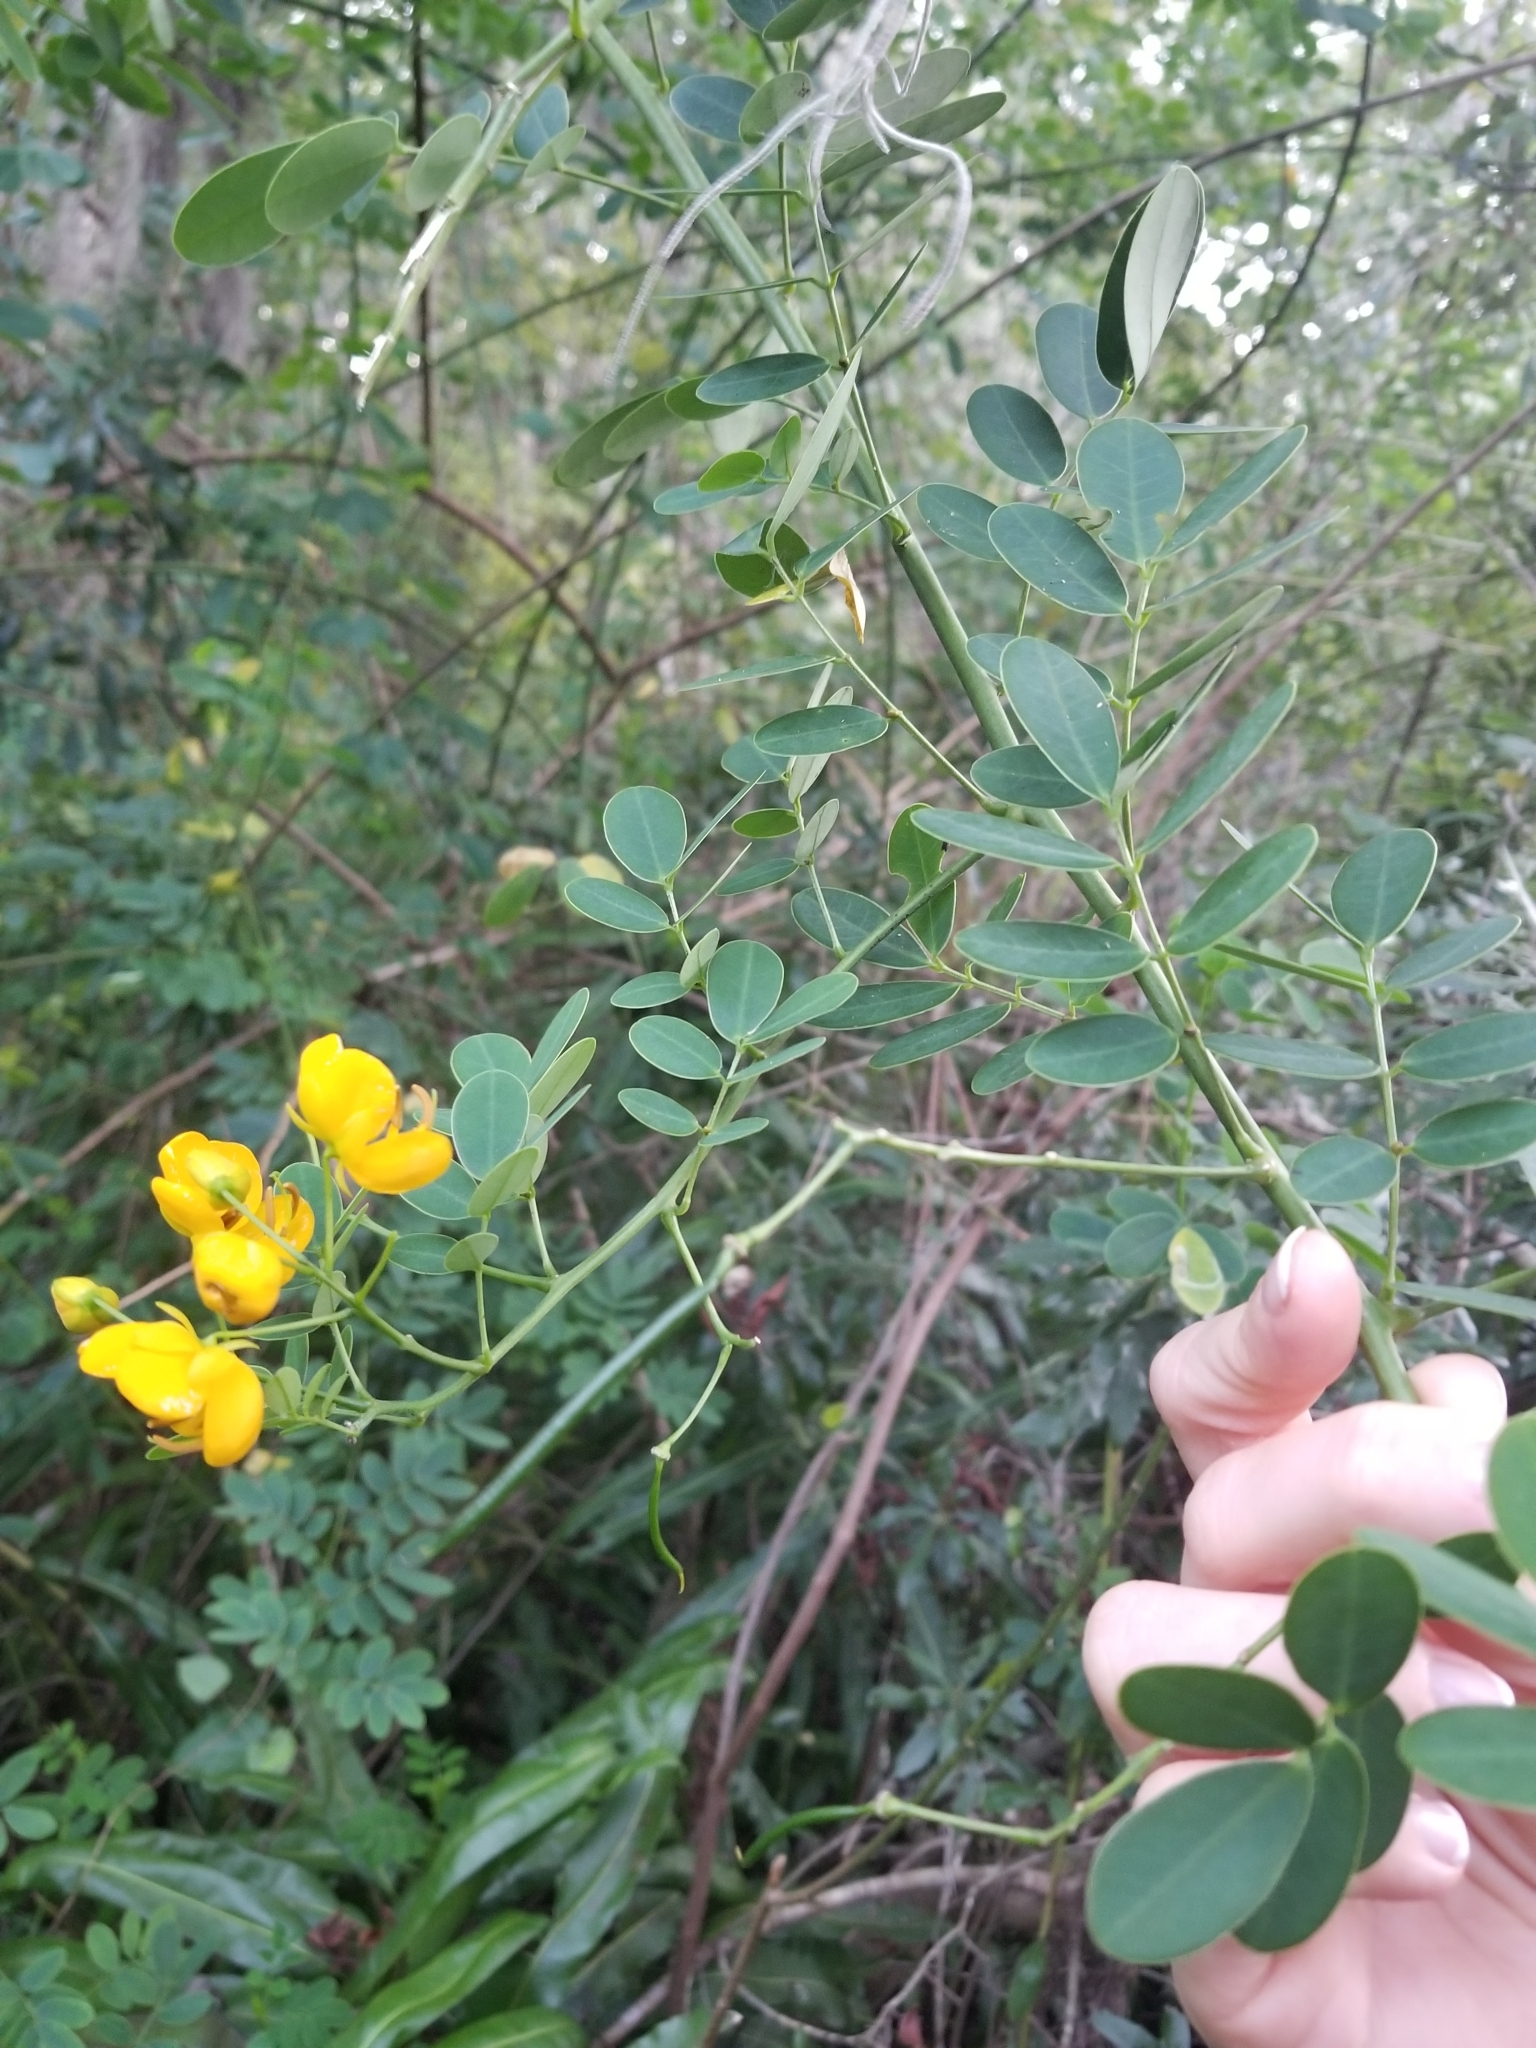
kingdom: Plantae
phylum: Tracheophyta
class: Magnoliopsida
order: Fabales
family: Fabaceae
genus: Senna
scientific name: Senna pendula
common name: Easter cassia
